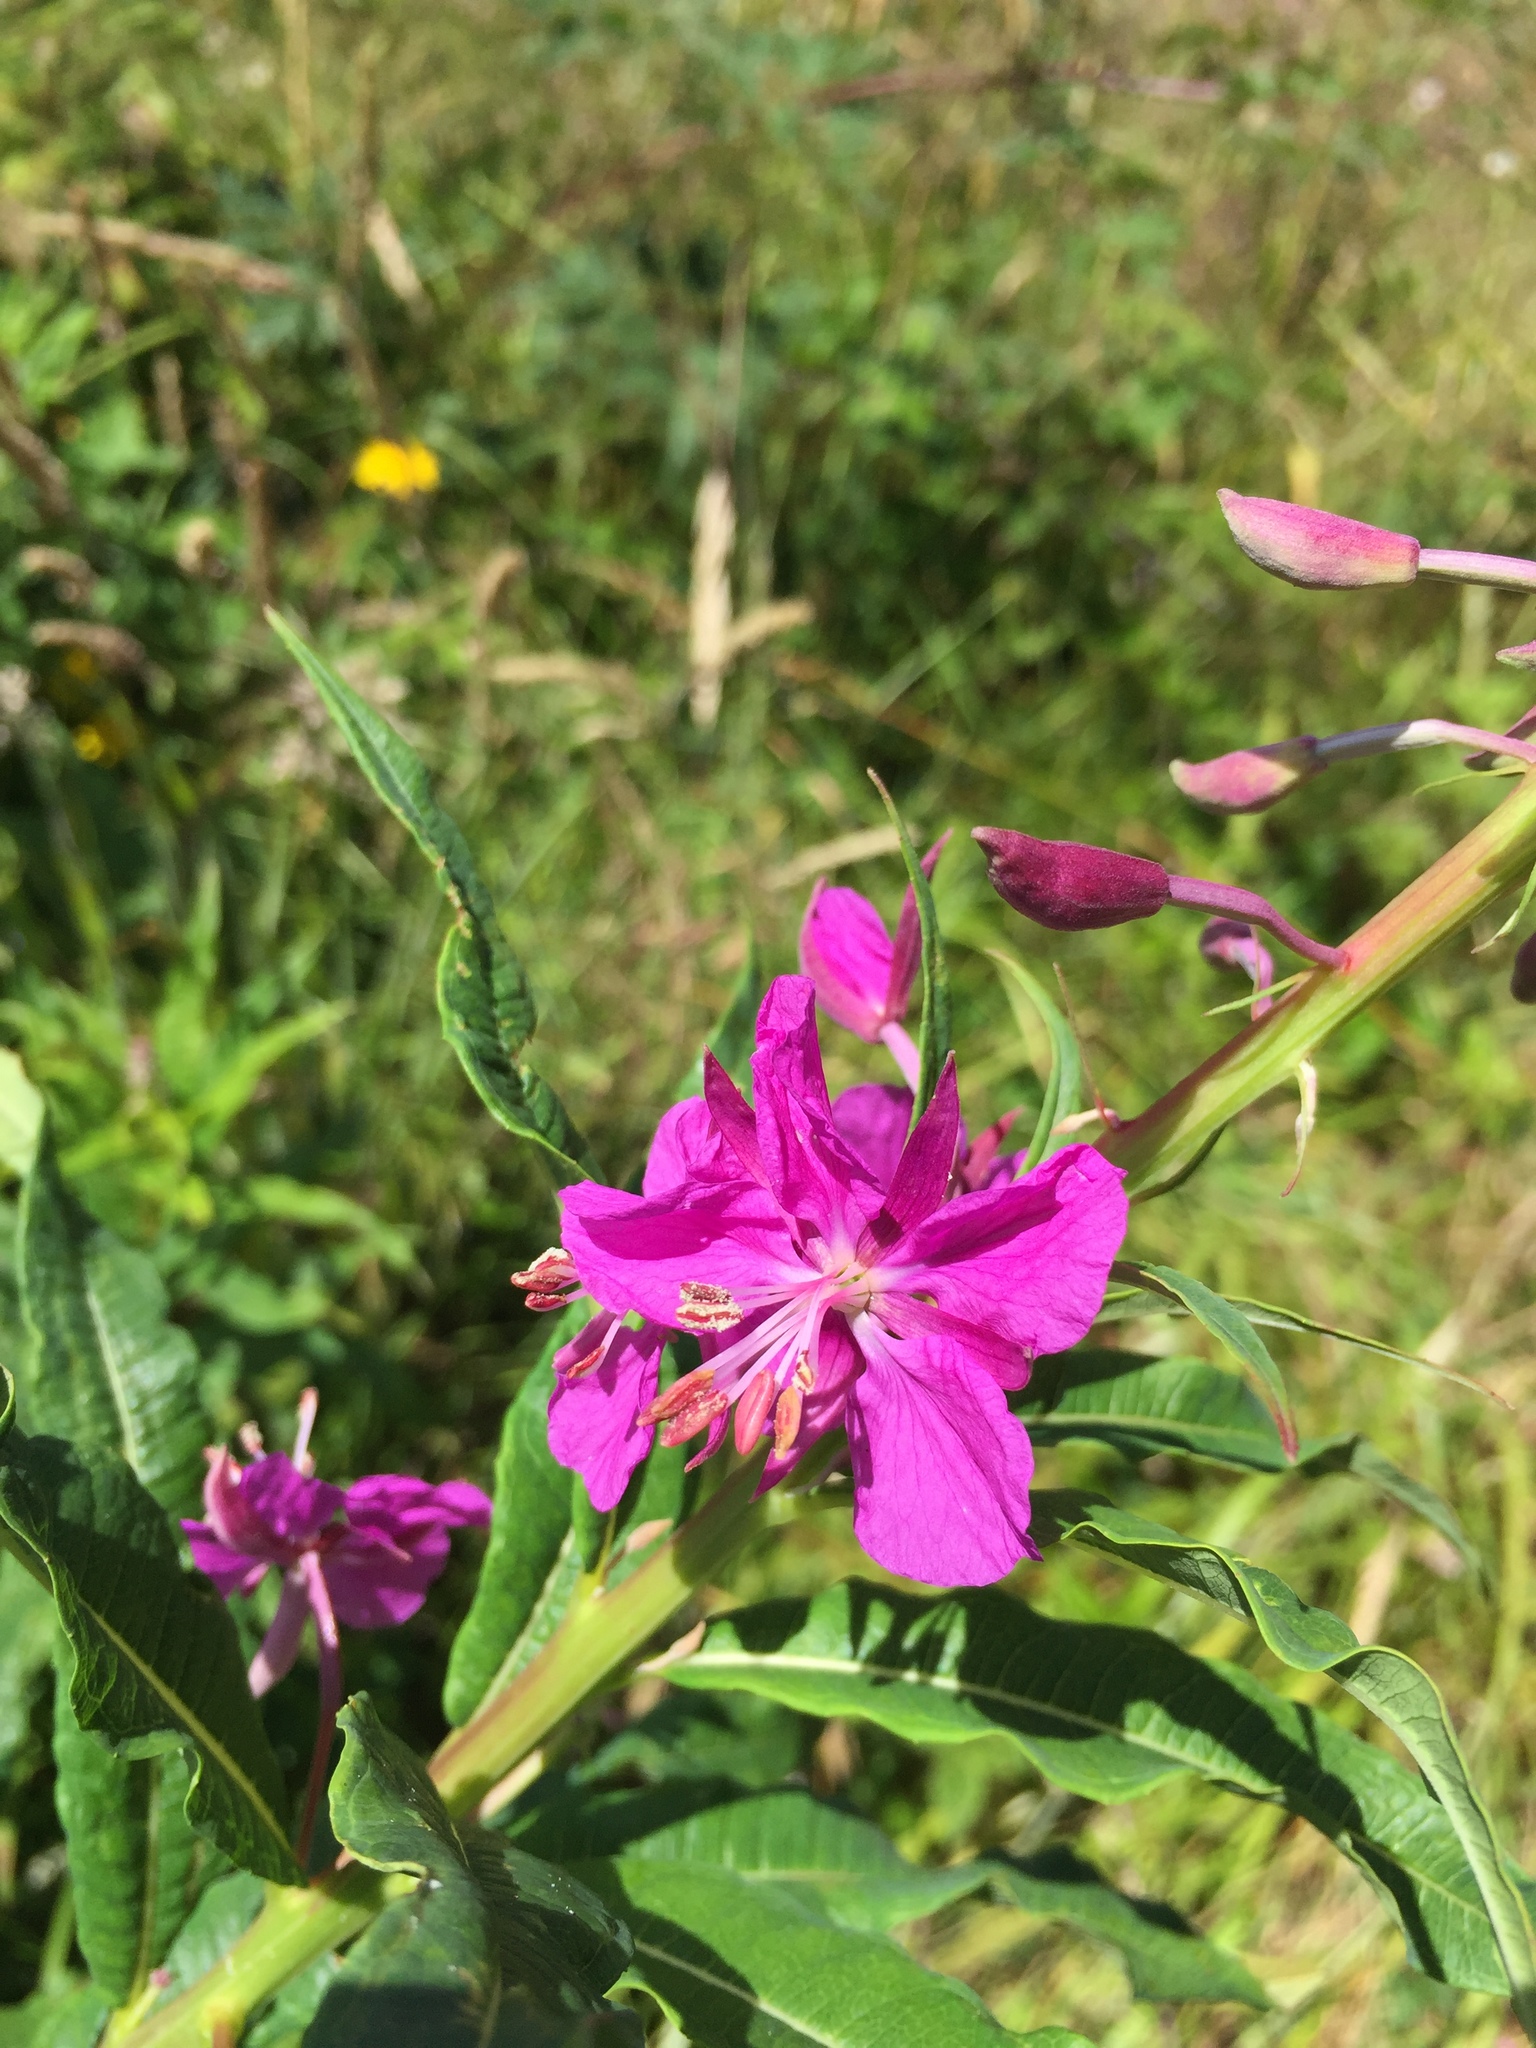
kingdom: Plantae
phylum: Tracheophyta
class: Magnoliopsida
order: Myrtales
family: Onagraceae
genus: Chamaenerion
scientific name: Chamaenerion angustifolium
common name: Fireweed
